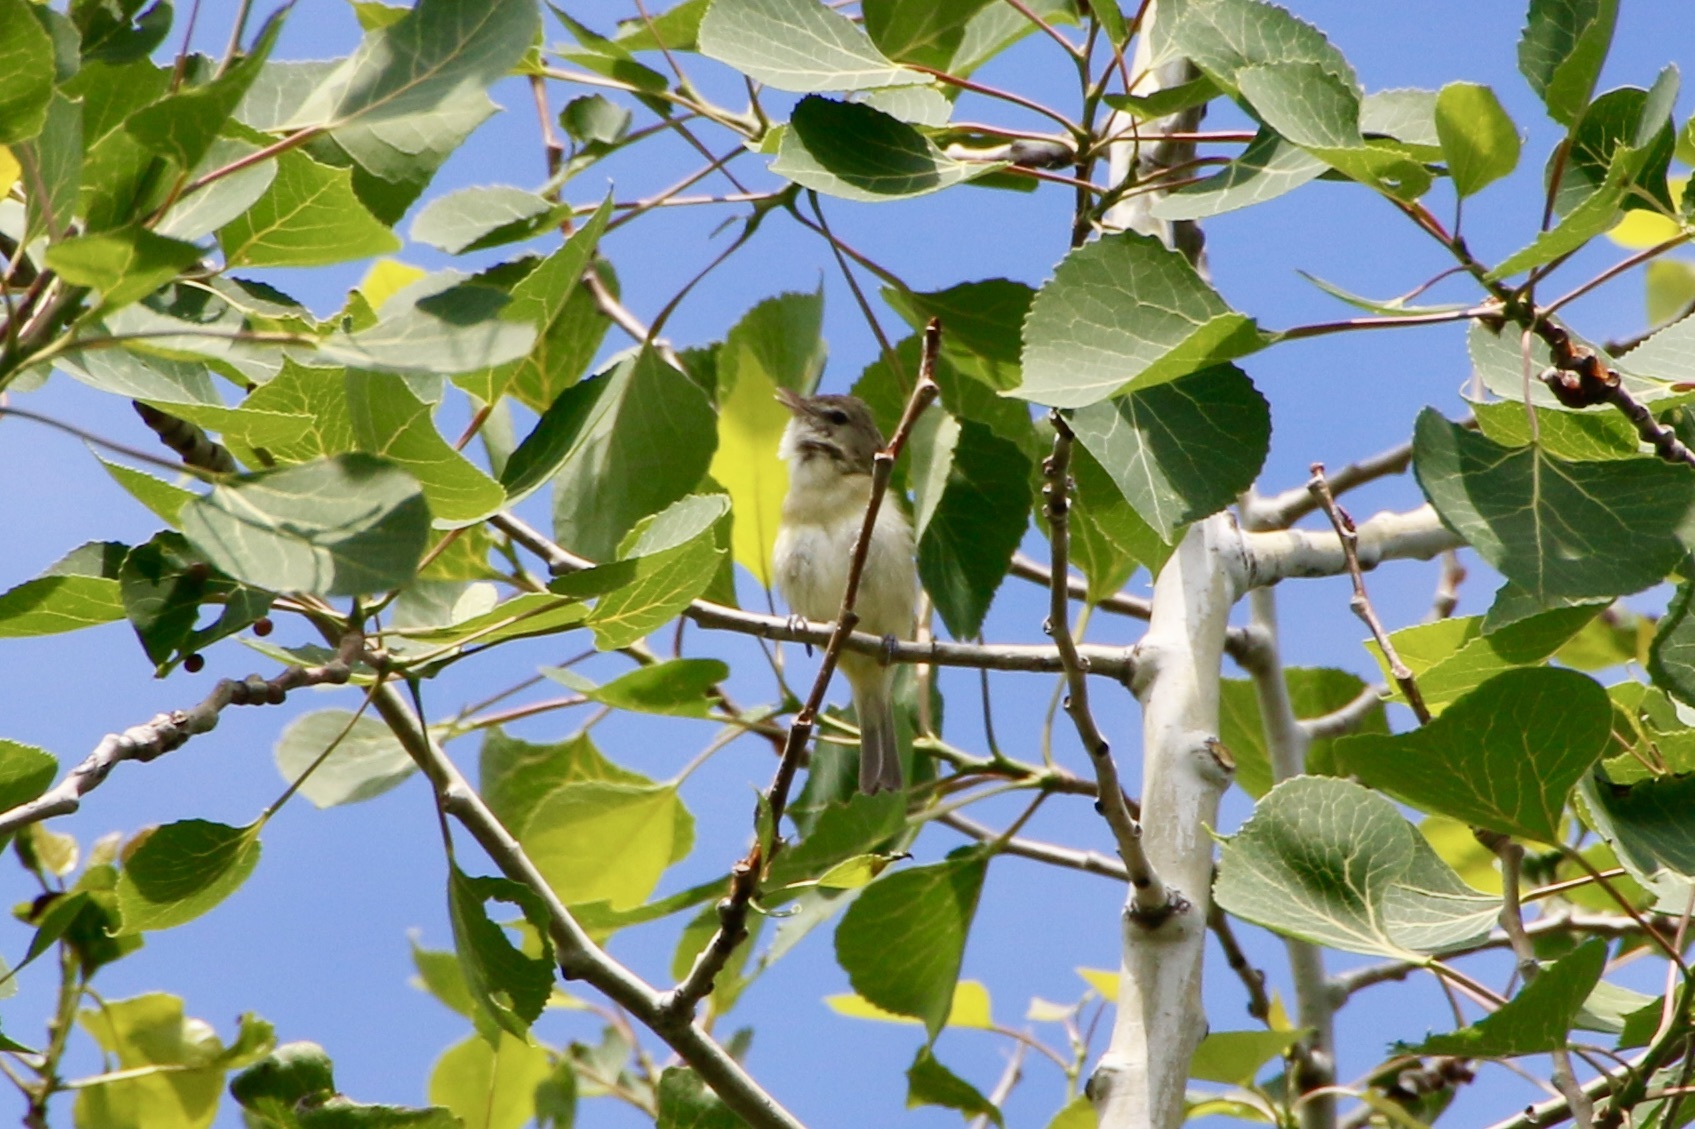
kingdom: Animalia
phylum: Chordata
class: Aves
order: Passeriformes
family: Vireonidae
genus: Vireo
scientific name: Vireo bellii
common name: Bell's vireo
